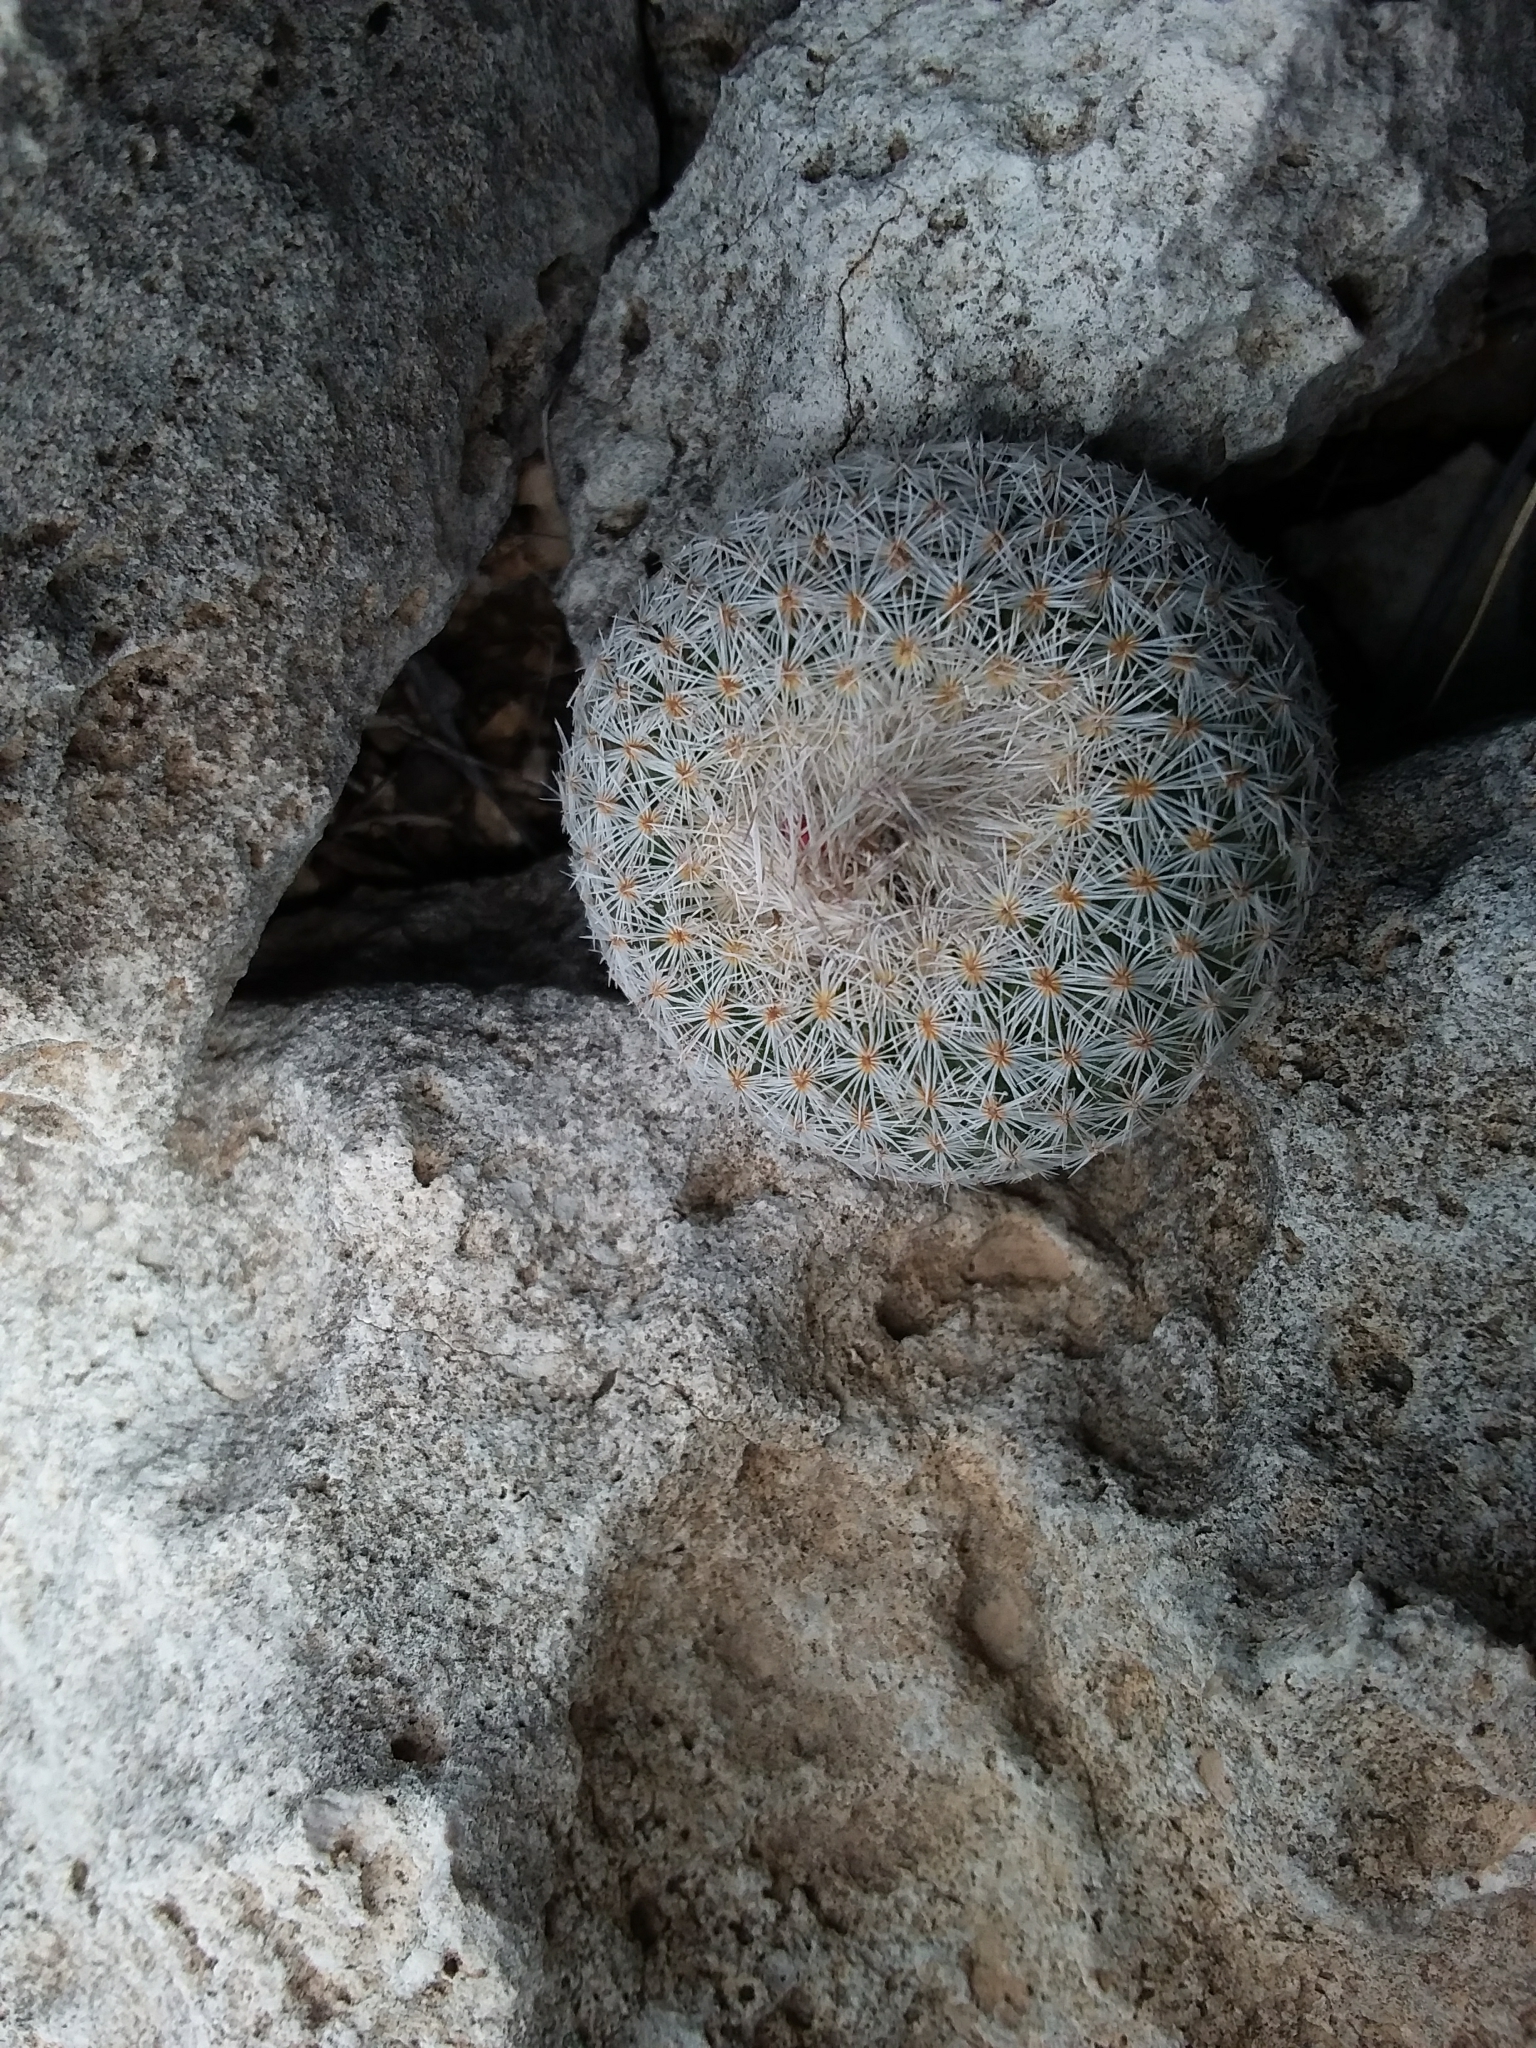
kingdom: Plantae
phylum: Tracheophyta
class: Magnoliopsida
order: Caryophyllales
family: Cactaceae
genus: Epithelantha
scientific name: Epithelantha micromeris
